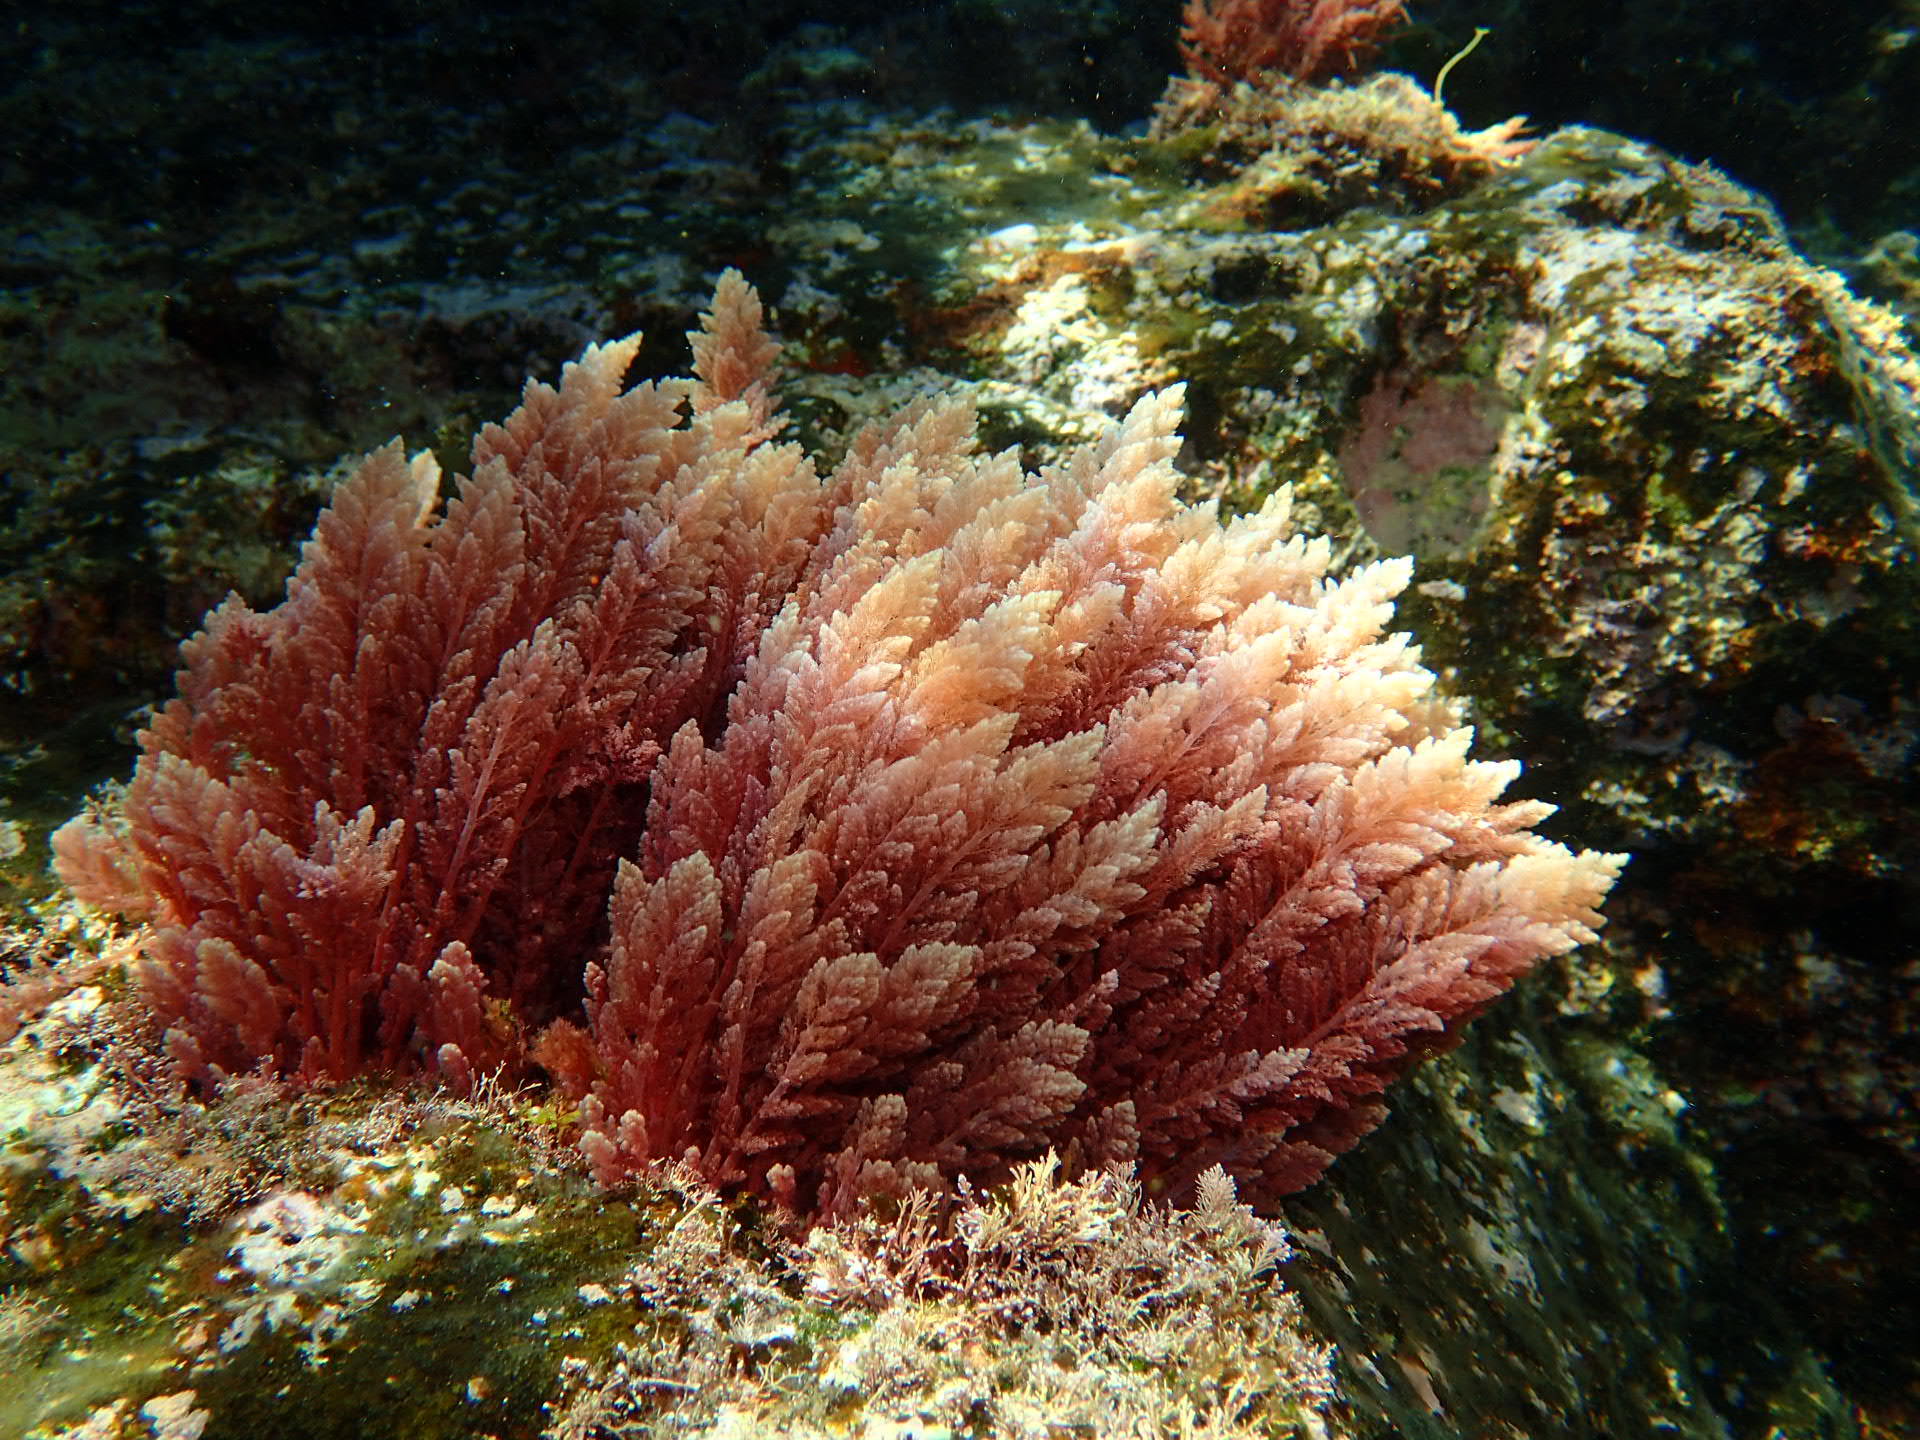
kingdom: Plantae
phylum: Rhodophyta
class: Florideophyceae
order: Bonnemaisoniales
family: Bonnemaisoniaceae
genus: Asparagopsis
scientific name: Asparagopsis taxiformis
